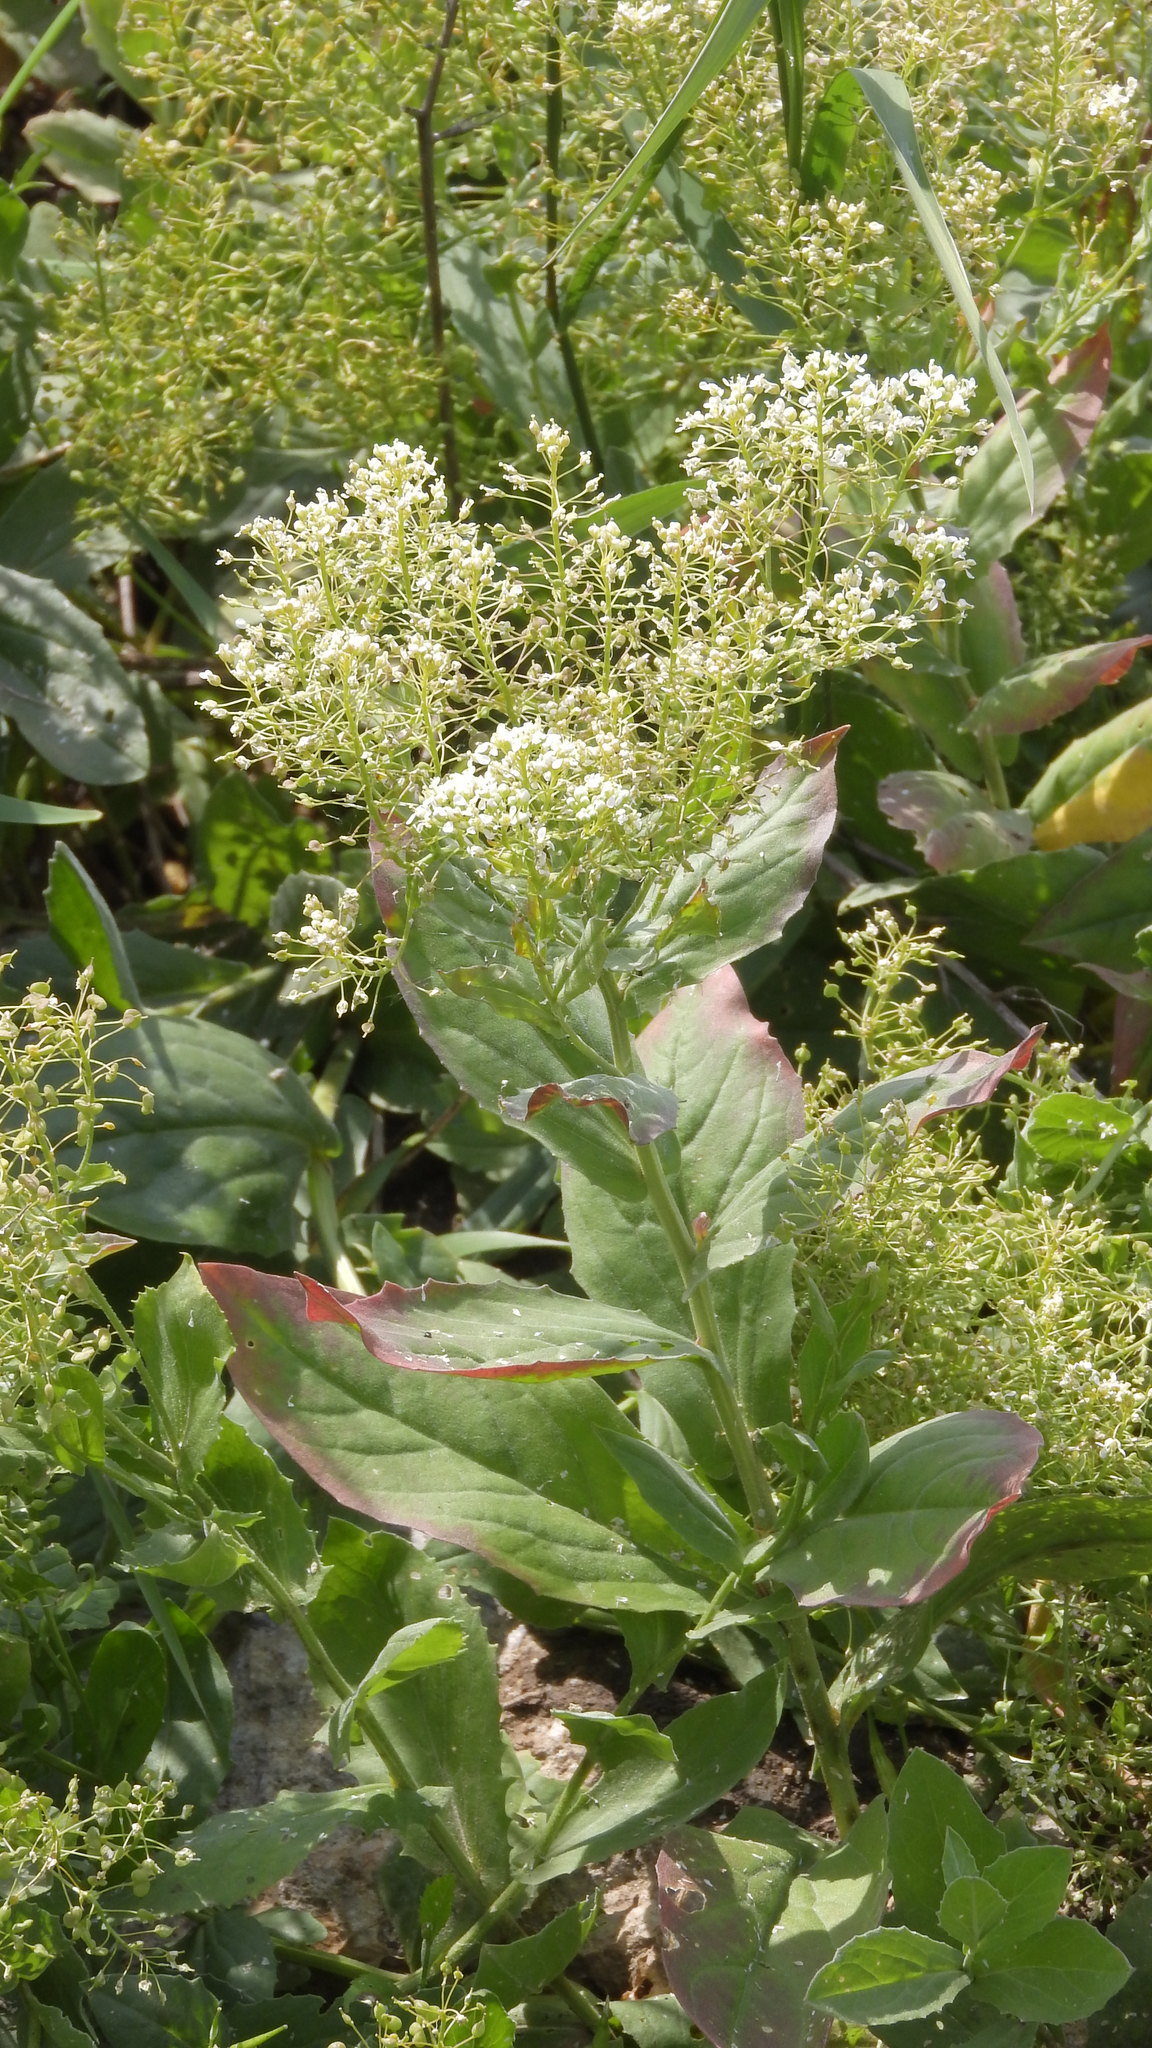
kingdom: Plantae
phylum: Tracheophyta
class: Magnoliopsida
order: Brassicales
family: Brassicaceae
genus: Lepidium
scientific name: Lepidium draba
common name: Hoary cress
